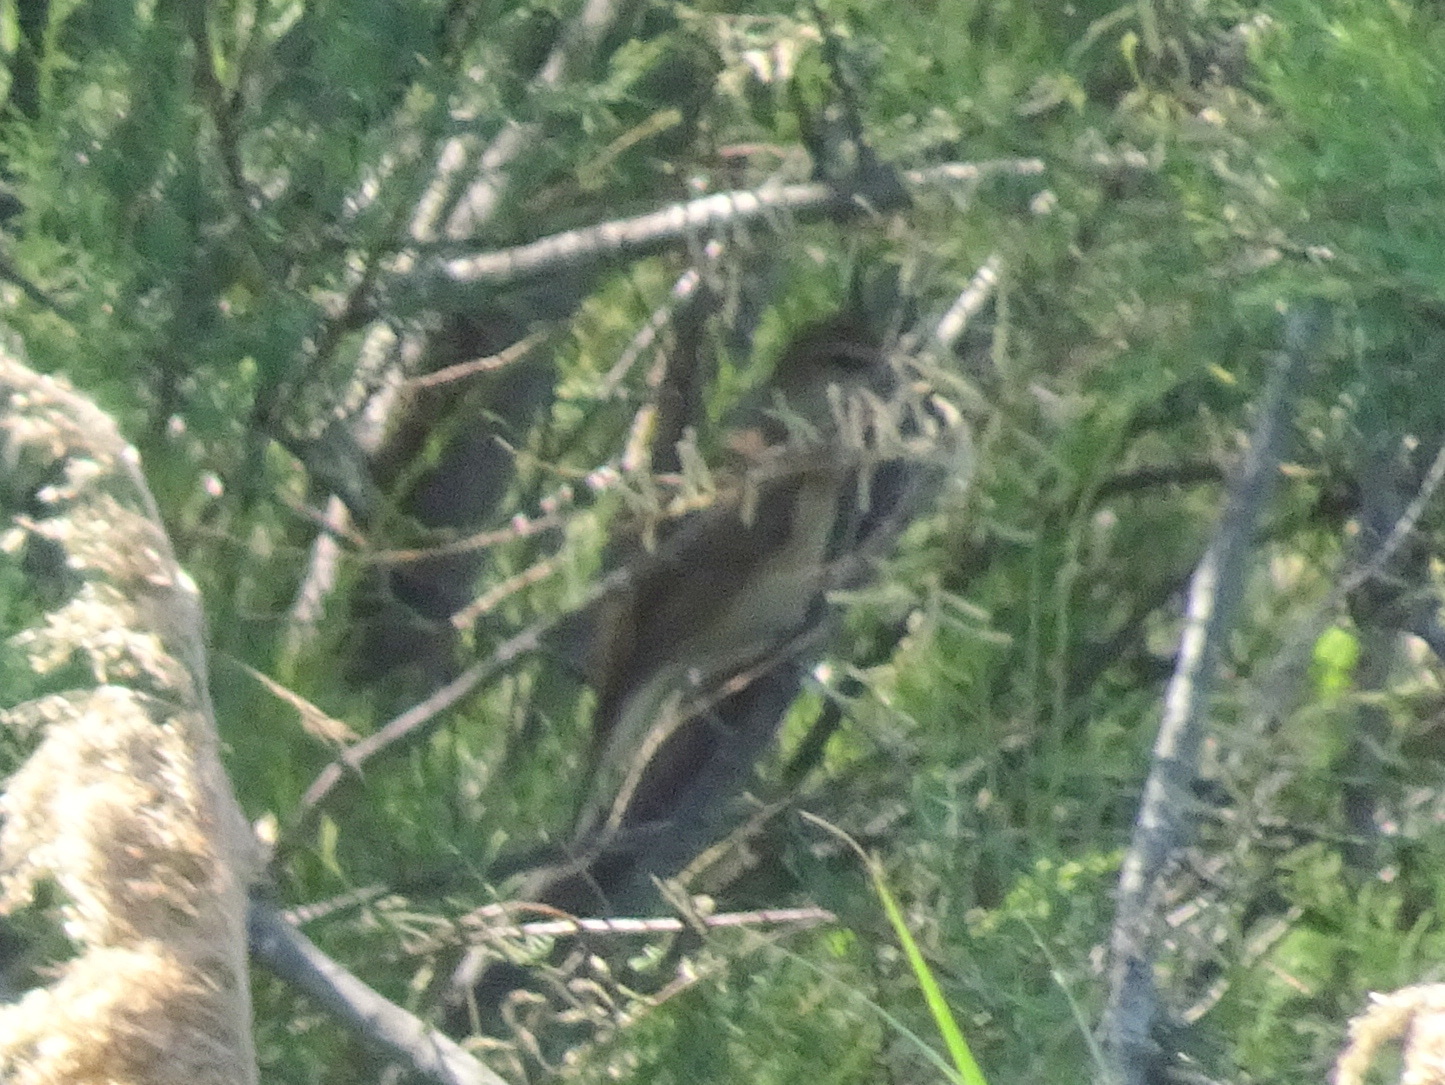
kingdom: Animalia
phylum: Chordata
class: Aves
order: Passeriformes
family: Acrocephalidae
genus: Acrocephalus
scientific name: Acrocephalus arundinaceus
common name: Great reed warbler
